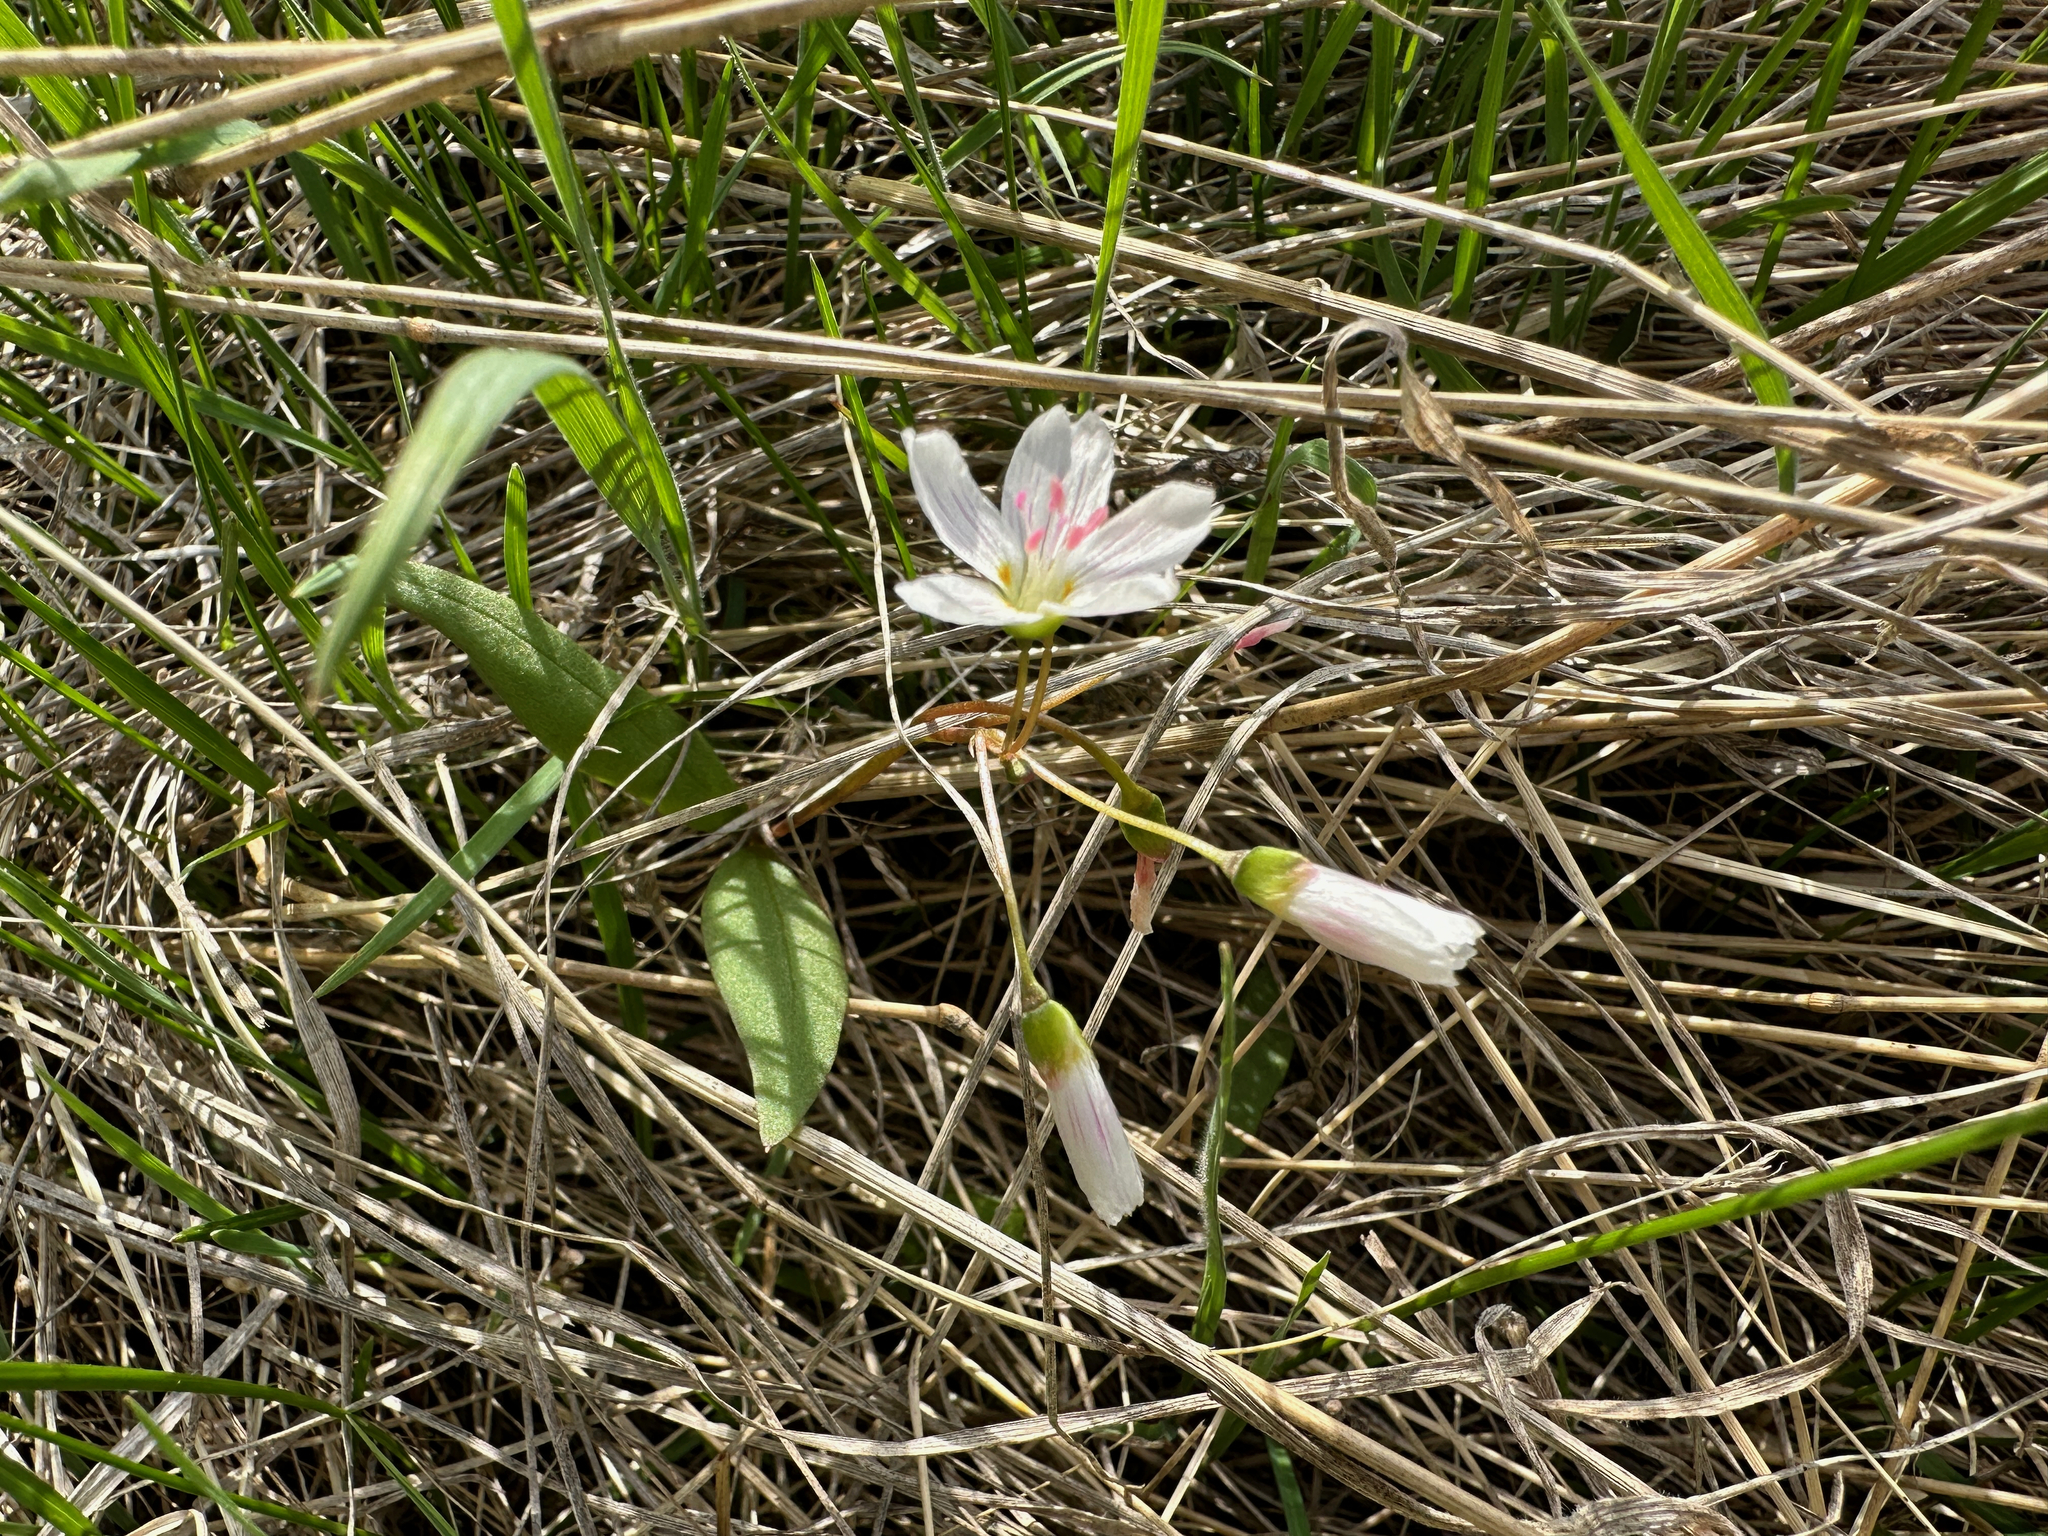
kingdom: Plantae
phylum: Tracheophyta
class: Magnoliopsida
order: Caryophyllales
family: Montiaceae
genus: Claytonia
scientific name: Claytonia lanceolata
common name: Western spring-beauty
